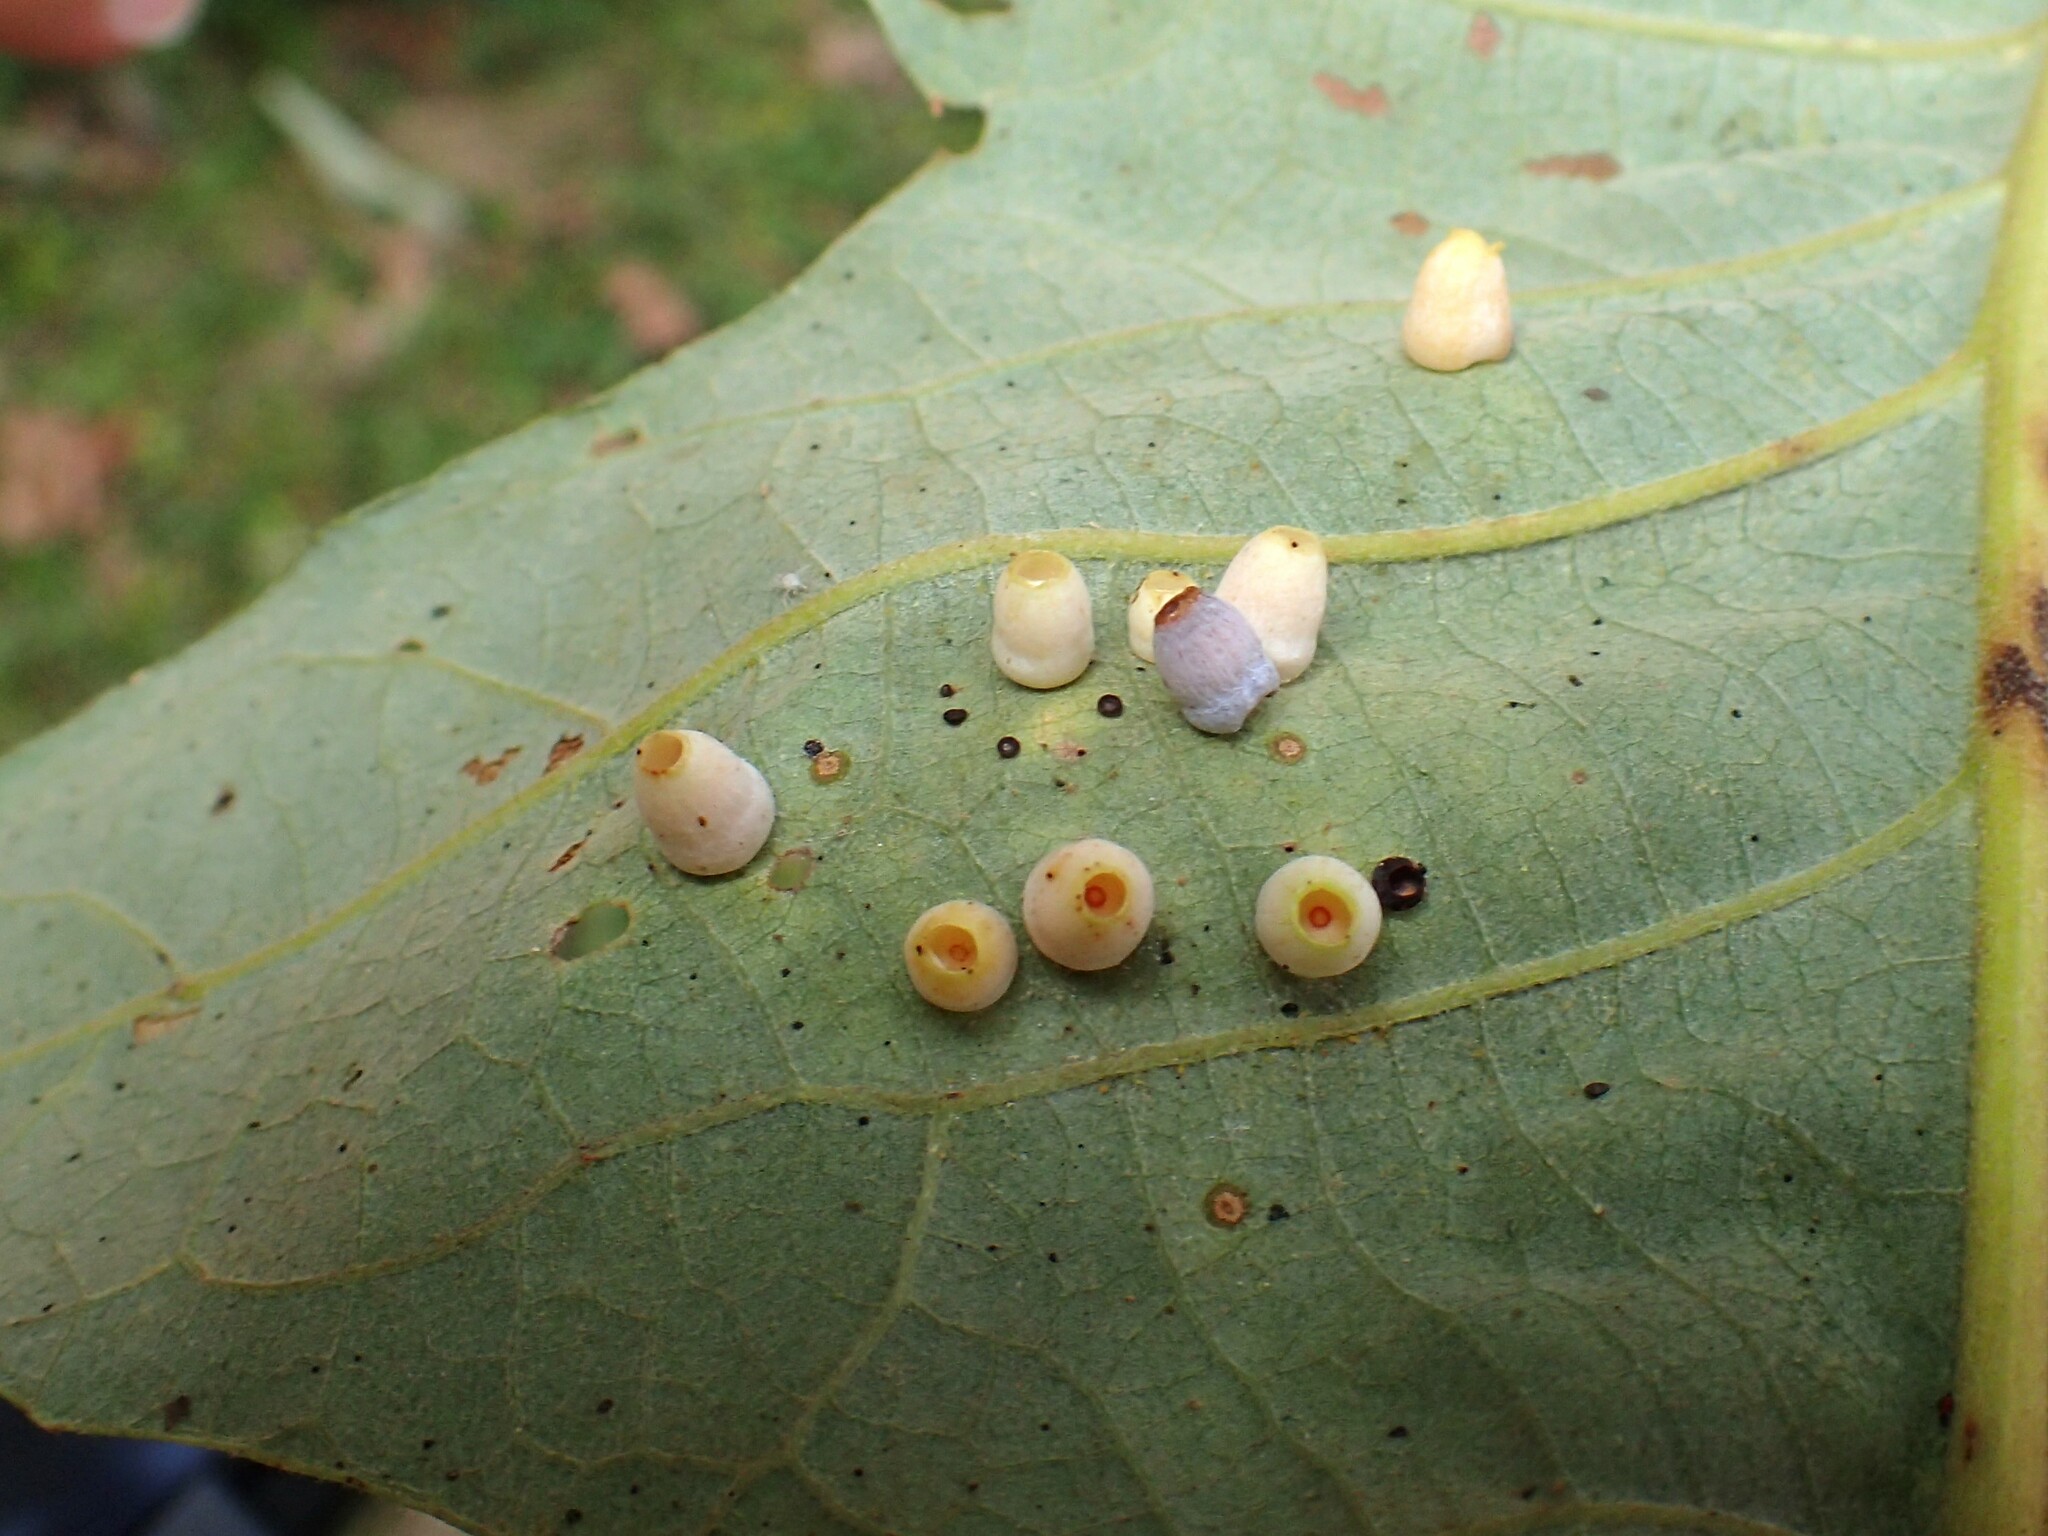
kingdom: Animalia
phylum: Arthropoda
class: Insecta
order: Hymenoptera
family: Cynipidae
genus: Phylloteras
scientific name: Phylloteras
